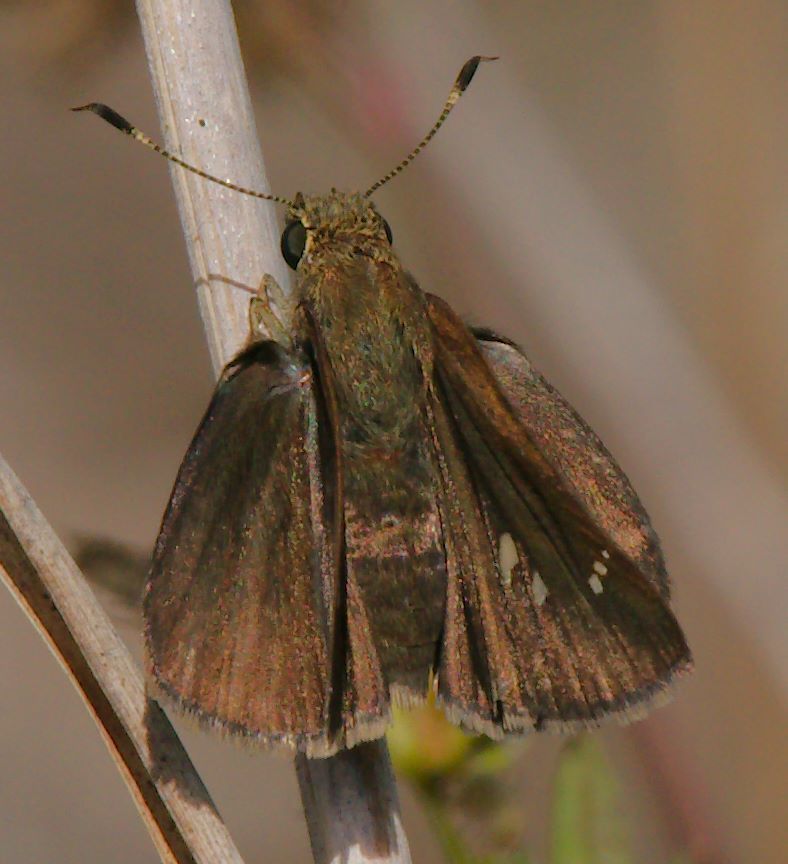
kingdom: Animalia
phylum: Arthropoda
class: Insecta
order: Lepidoptera
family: Hesperiidae
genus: Lerema
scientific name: Lerema accius
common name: Clouded skipper
